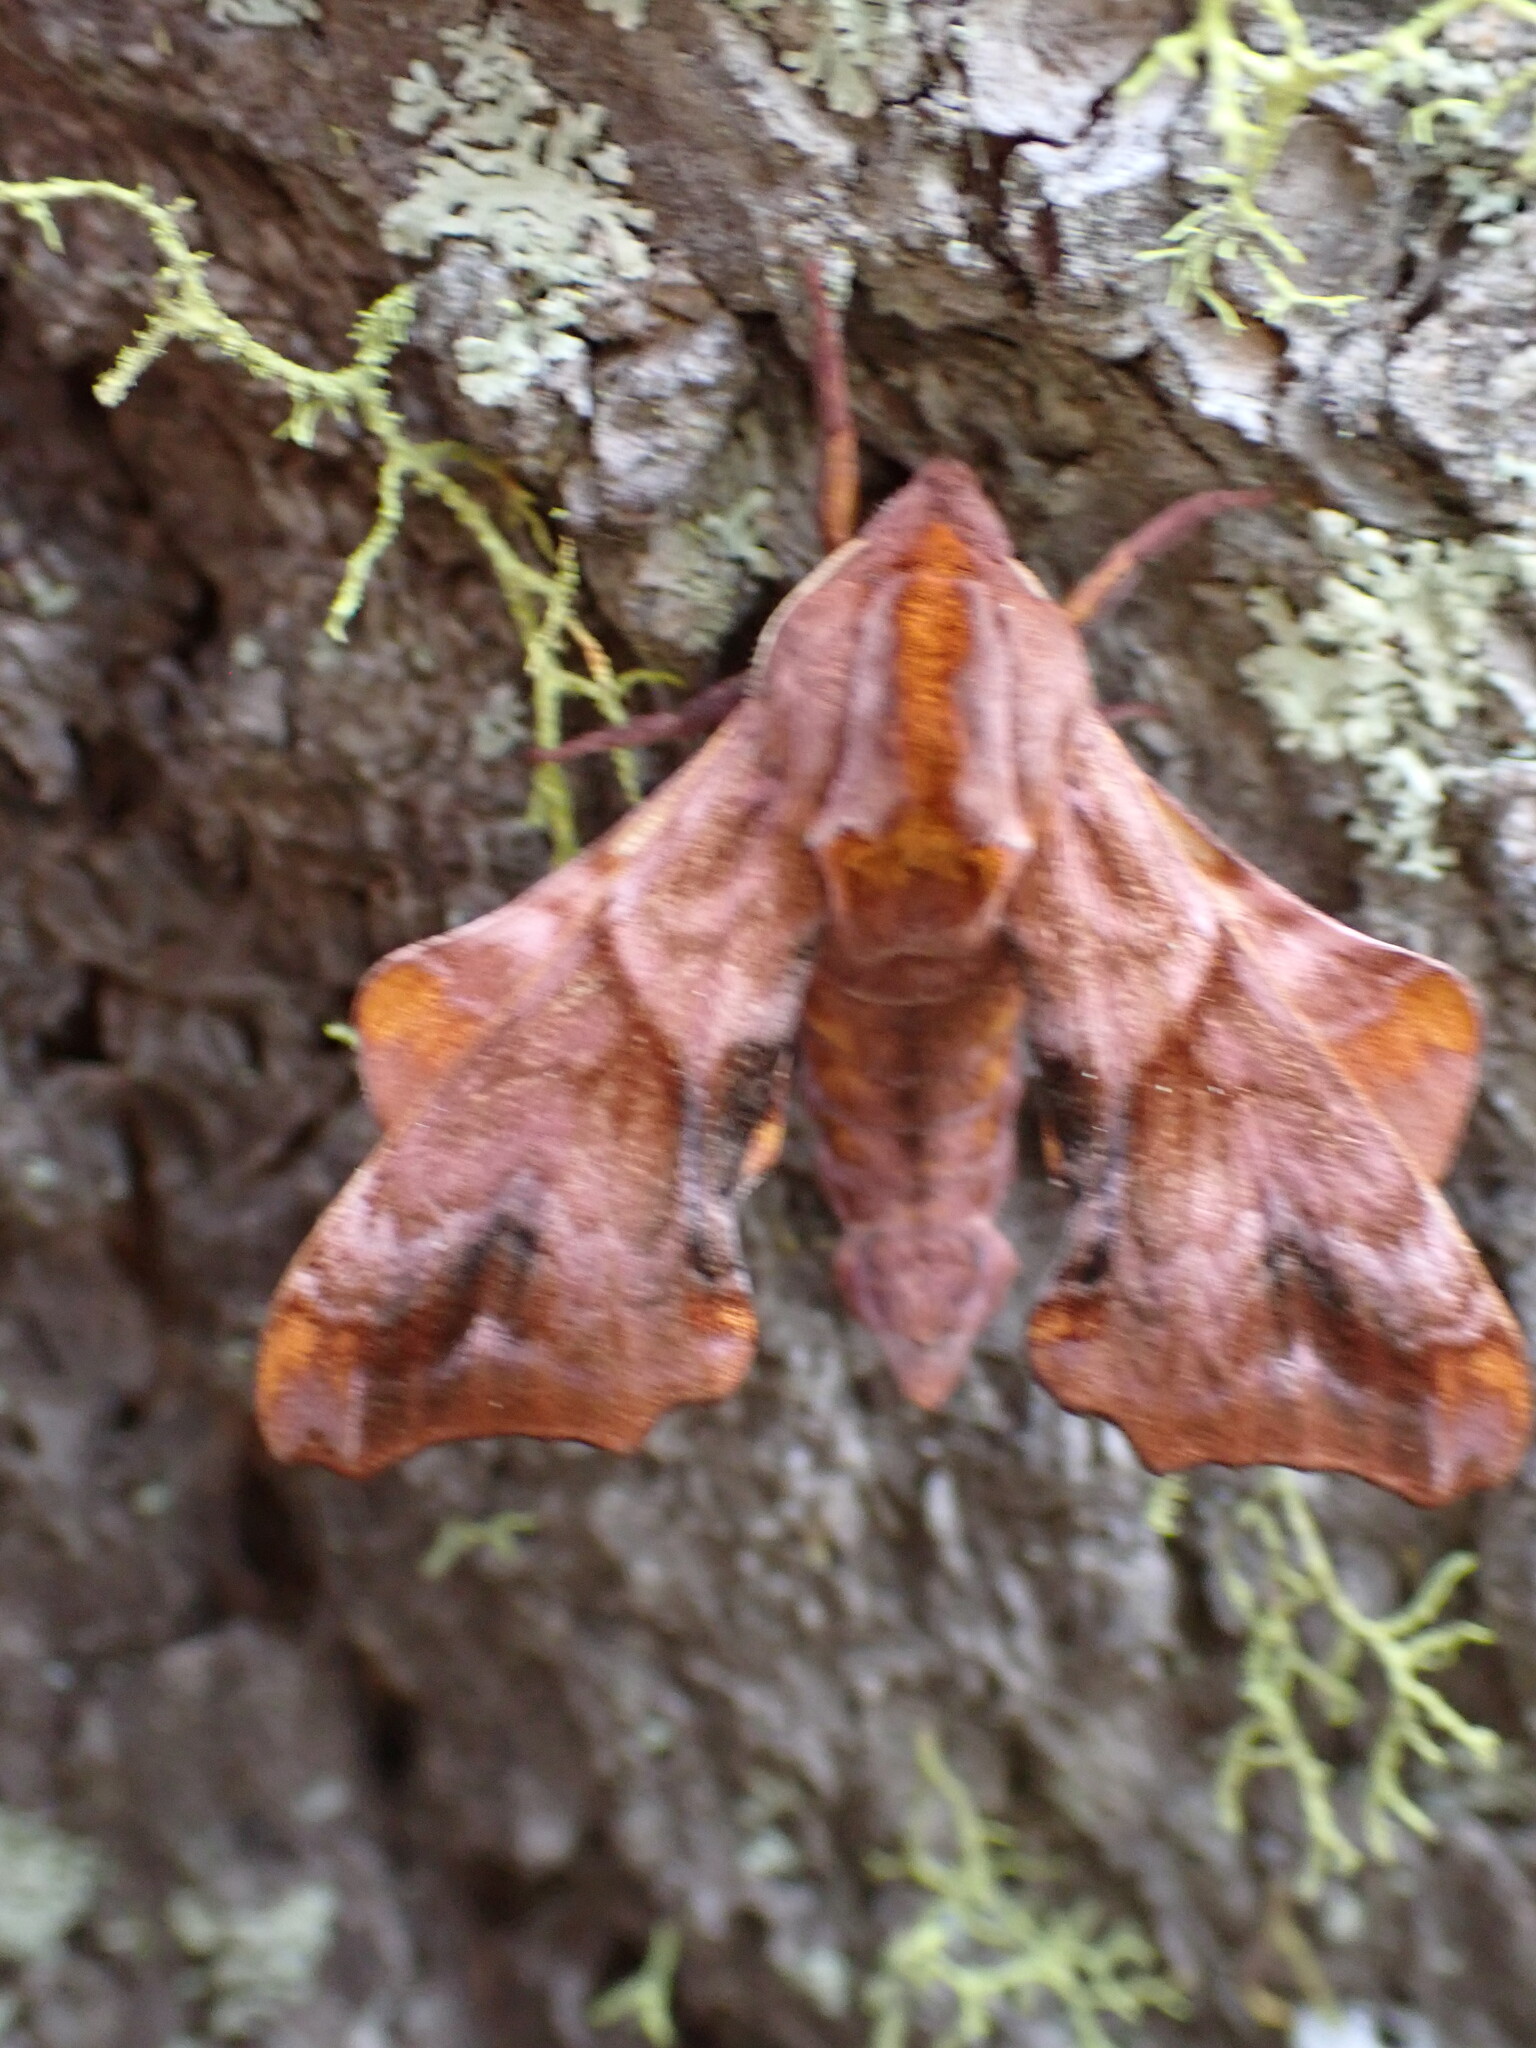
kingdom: Animalia
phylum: Arthropoda
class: Insecta
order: Lepidoptera
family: Sphingidae
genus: Paonias
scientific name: Paonias myops
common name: Small-eyed sphinx
